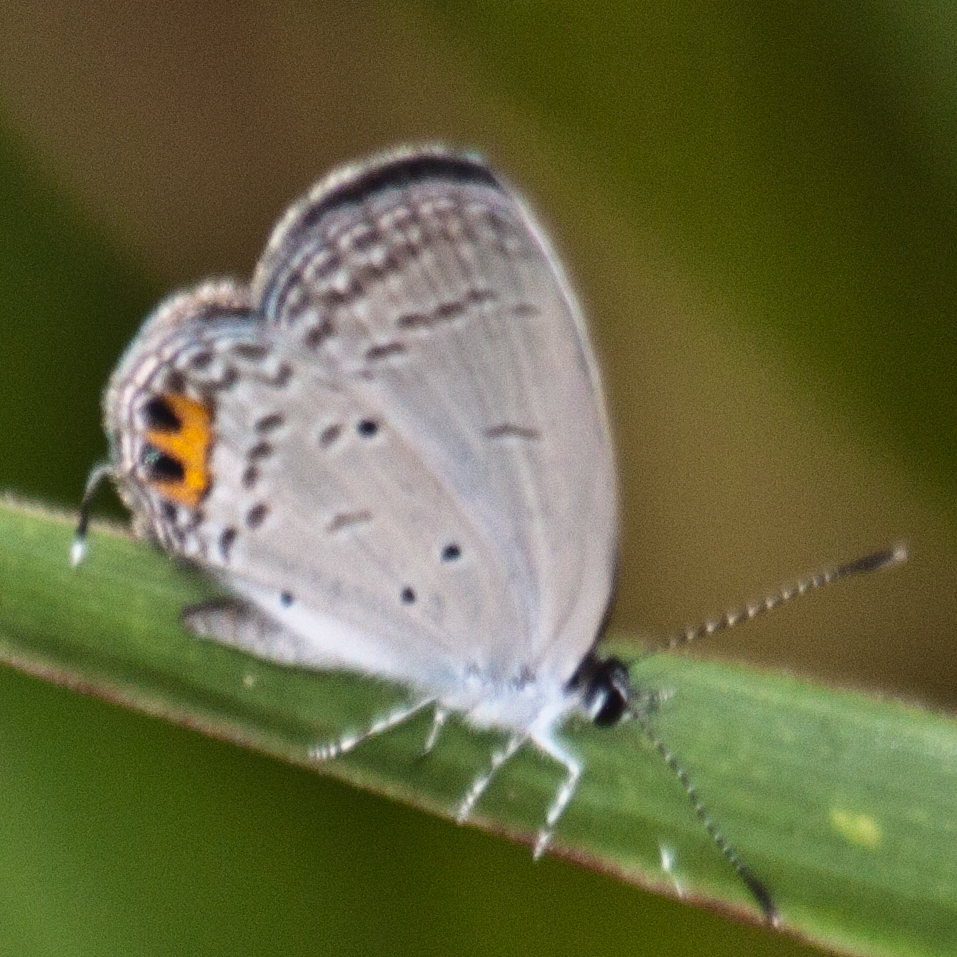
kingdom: Animalia
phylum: Arthropoda
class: Insecta
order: Lepidoptera
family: Lycaenidae
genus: Everes
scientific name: Everes lacturnus
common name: Orange-tipped pea-blue
